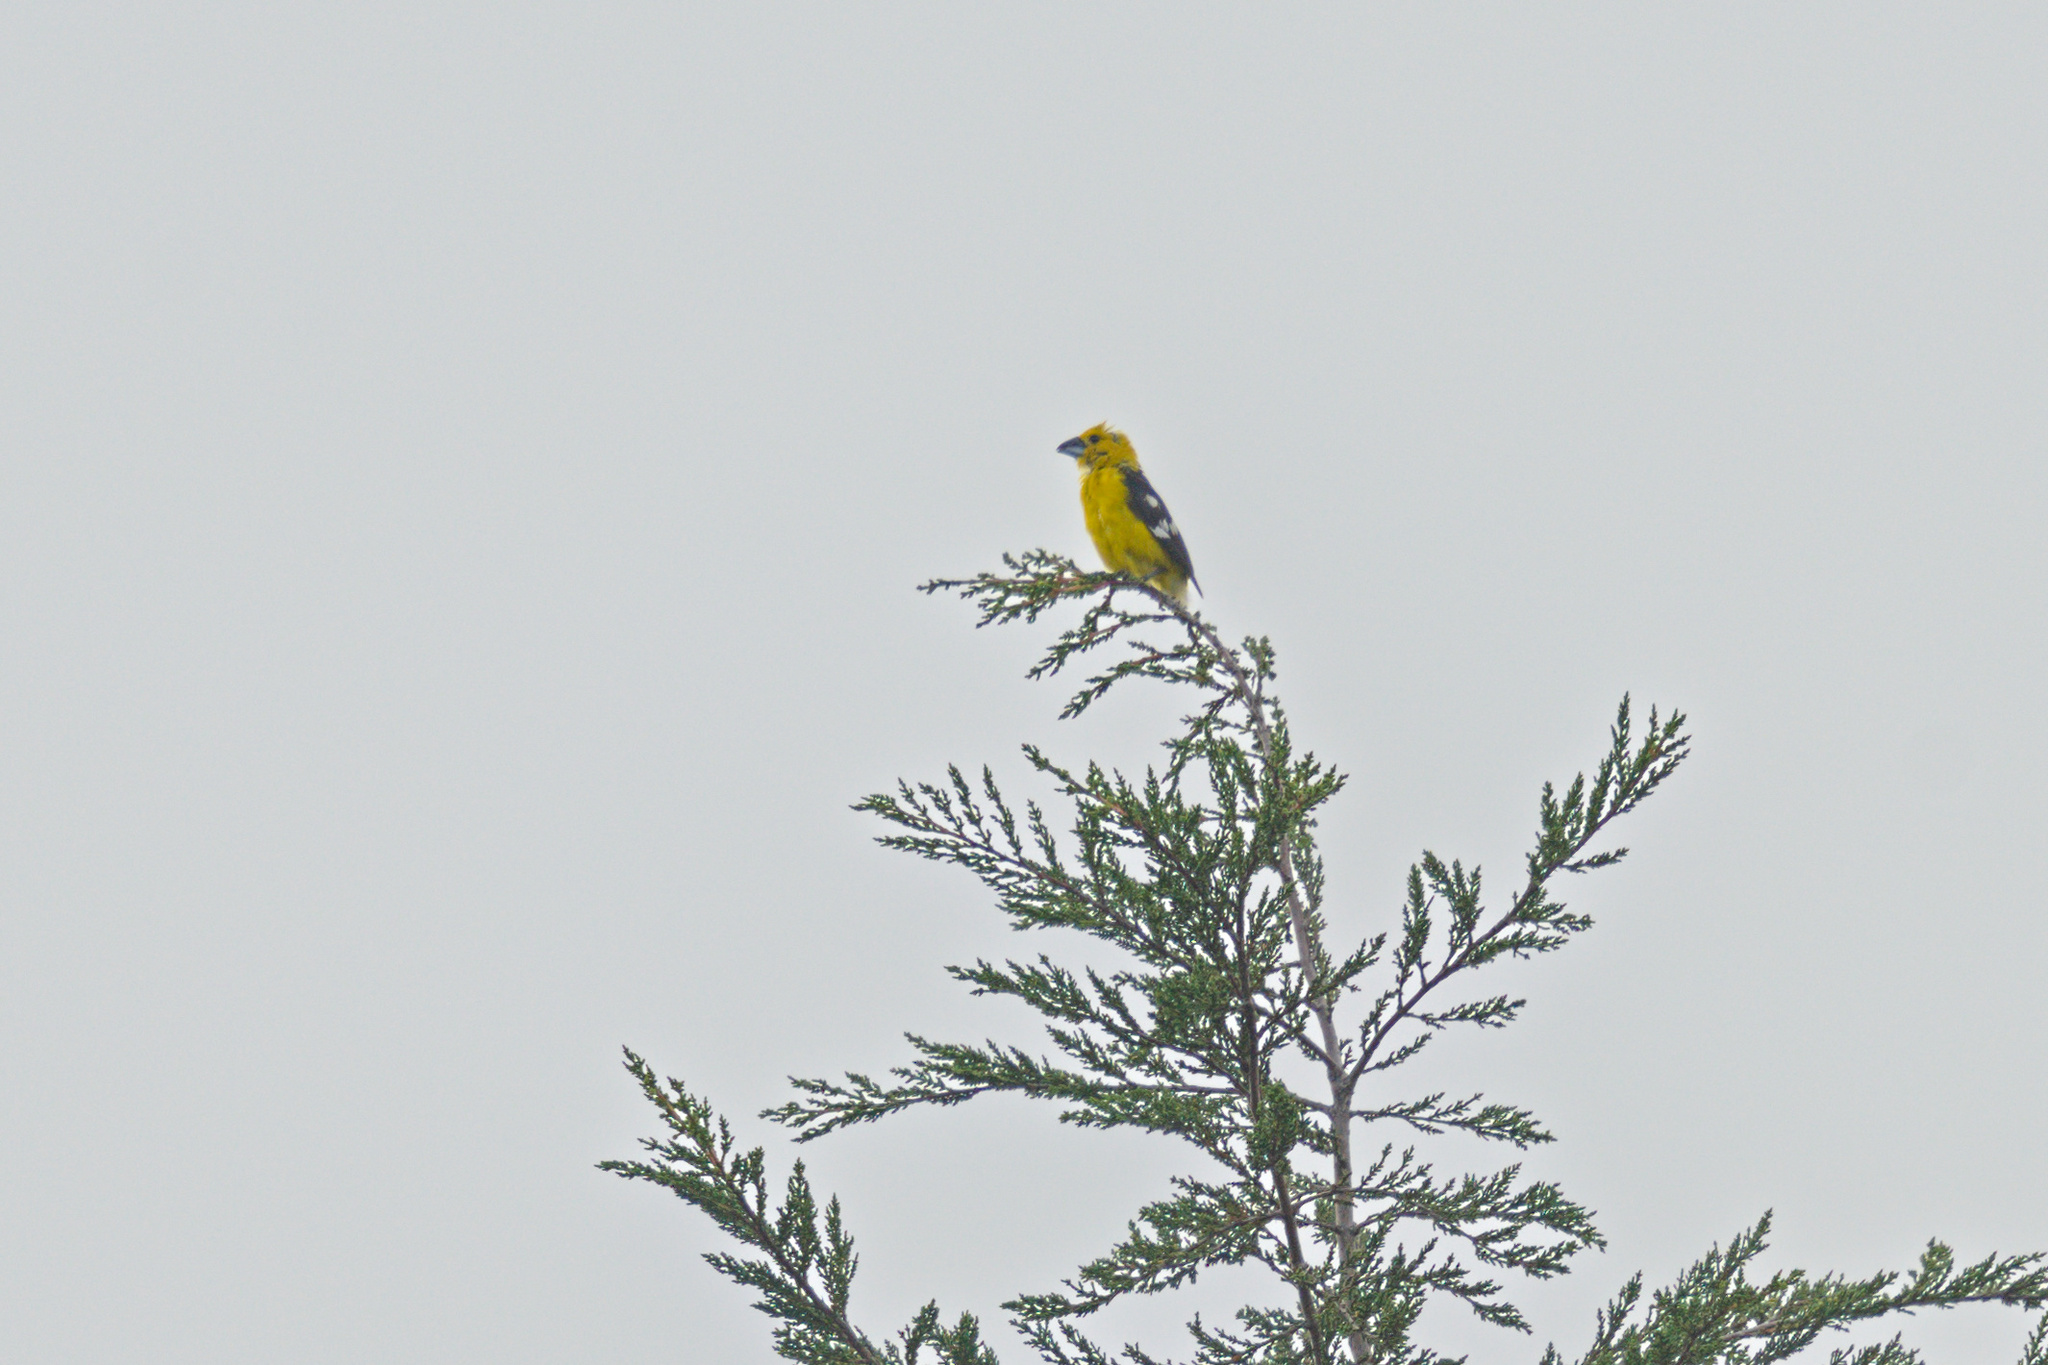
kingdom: Animalia
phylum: Chordata
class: Aves
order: Passeriformes
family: Cardinalidae
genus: Pheucticus
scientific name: Pheucticus chrysogaster
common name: Golden grosbeak
